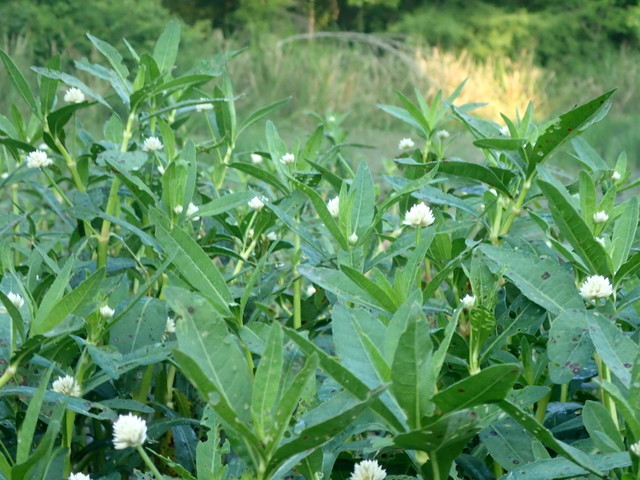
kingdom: Plantae
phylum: Tracheophyta
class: Magnoliopsida
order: Caryophyllales
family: Amaranthaceae
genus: Alternanthera
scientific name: Alternanthera philoxeroides
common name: Alligatorweed
